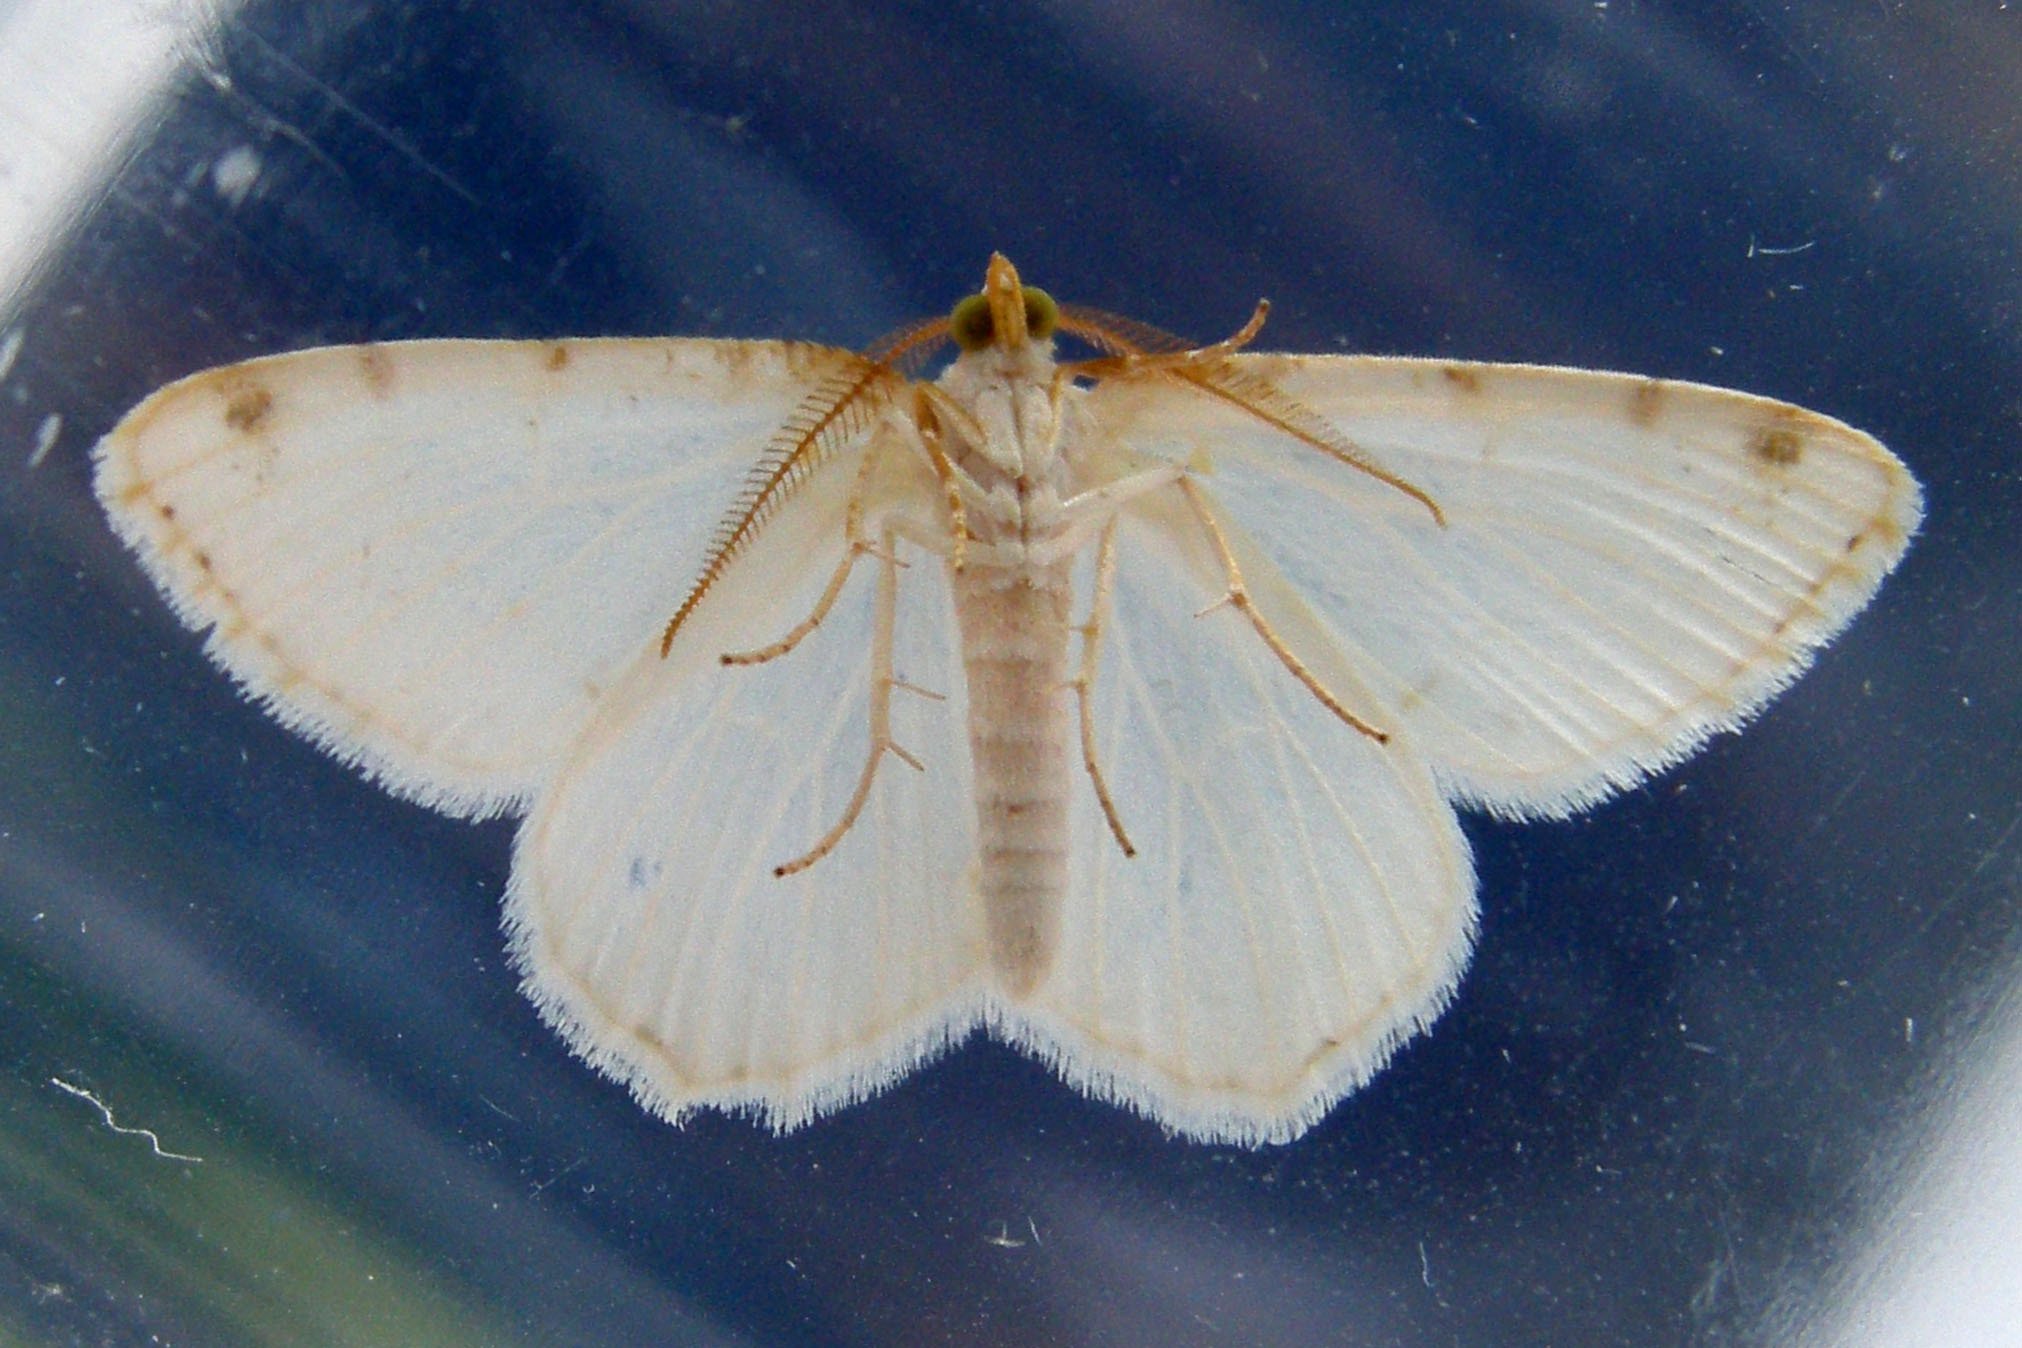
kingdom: Animalia
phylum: Arthropoda
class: Insecta
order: Lepidoptera
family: Geometridae
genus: Macaria
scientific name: Macaria pustularia
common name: Lesser maple spanworm moth
